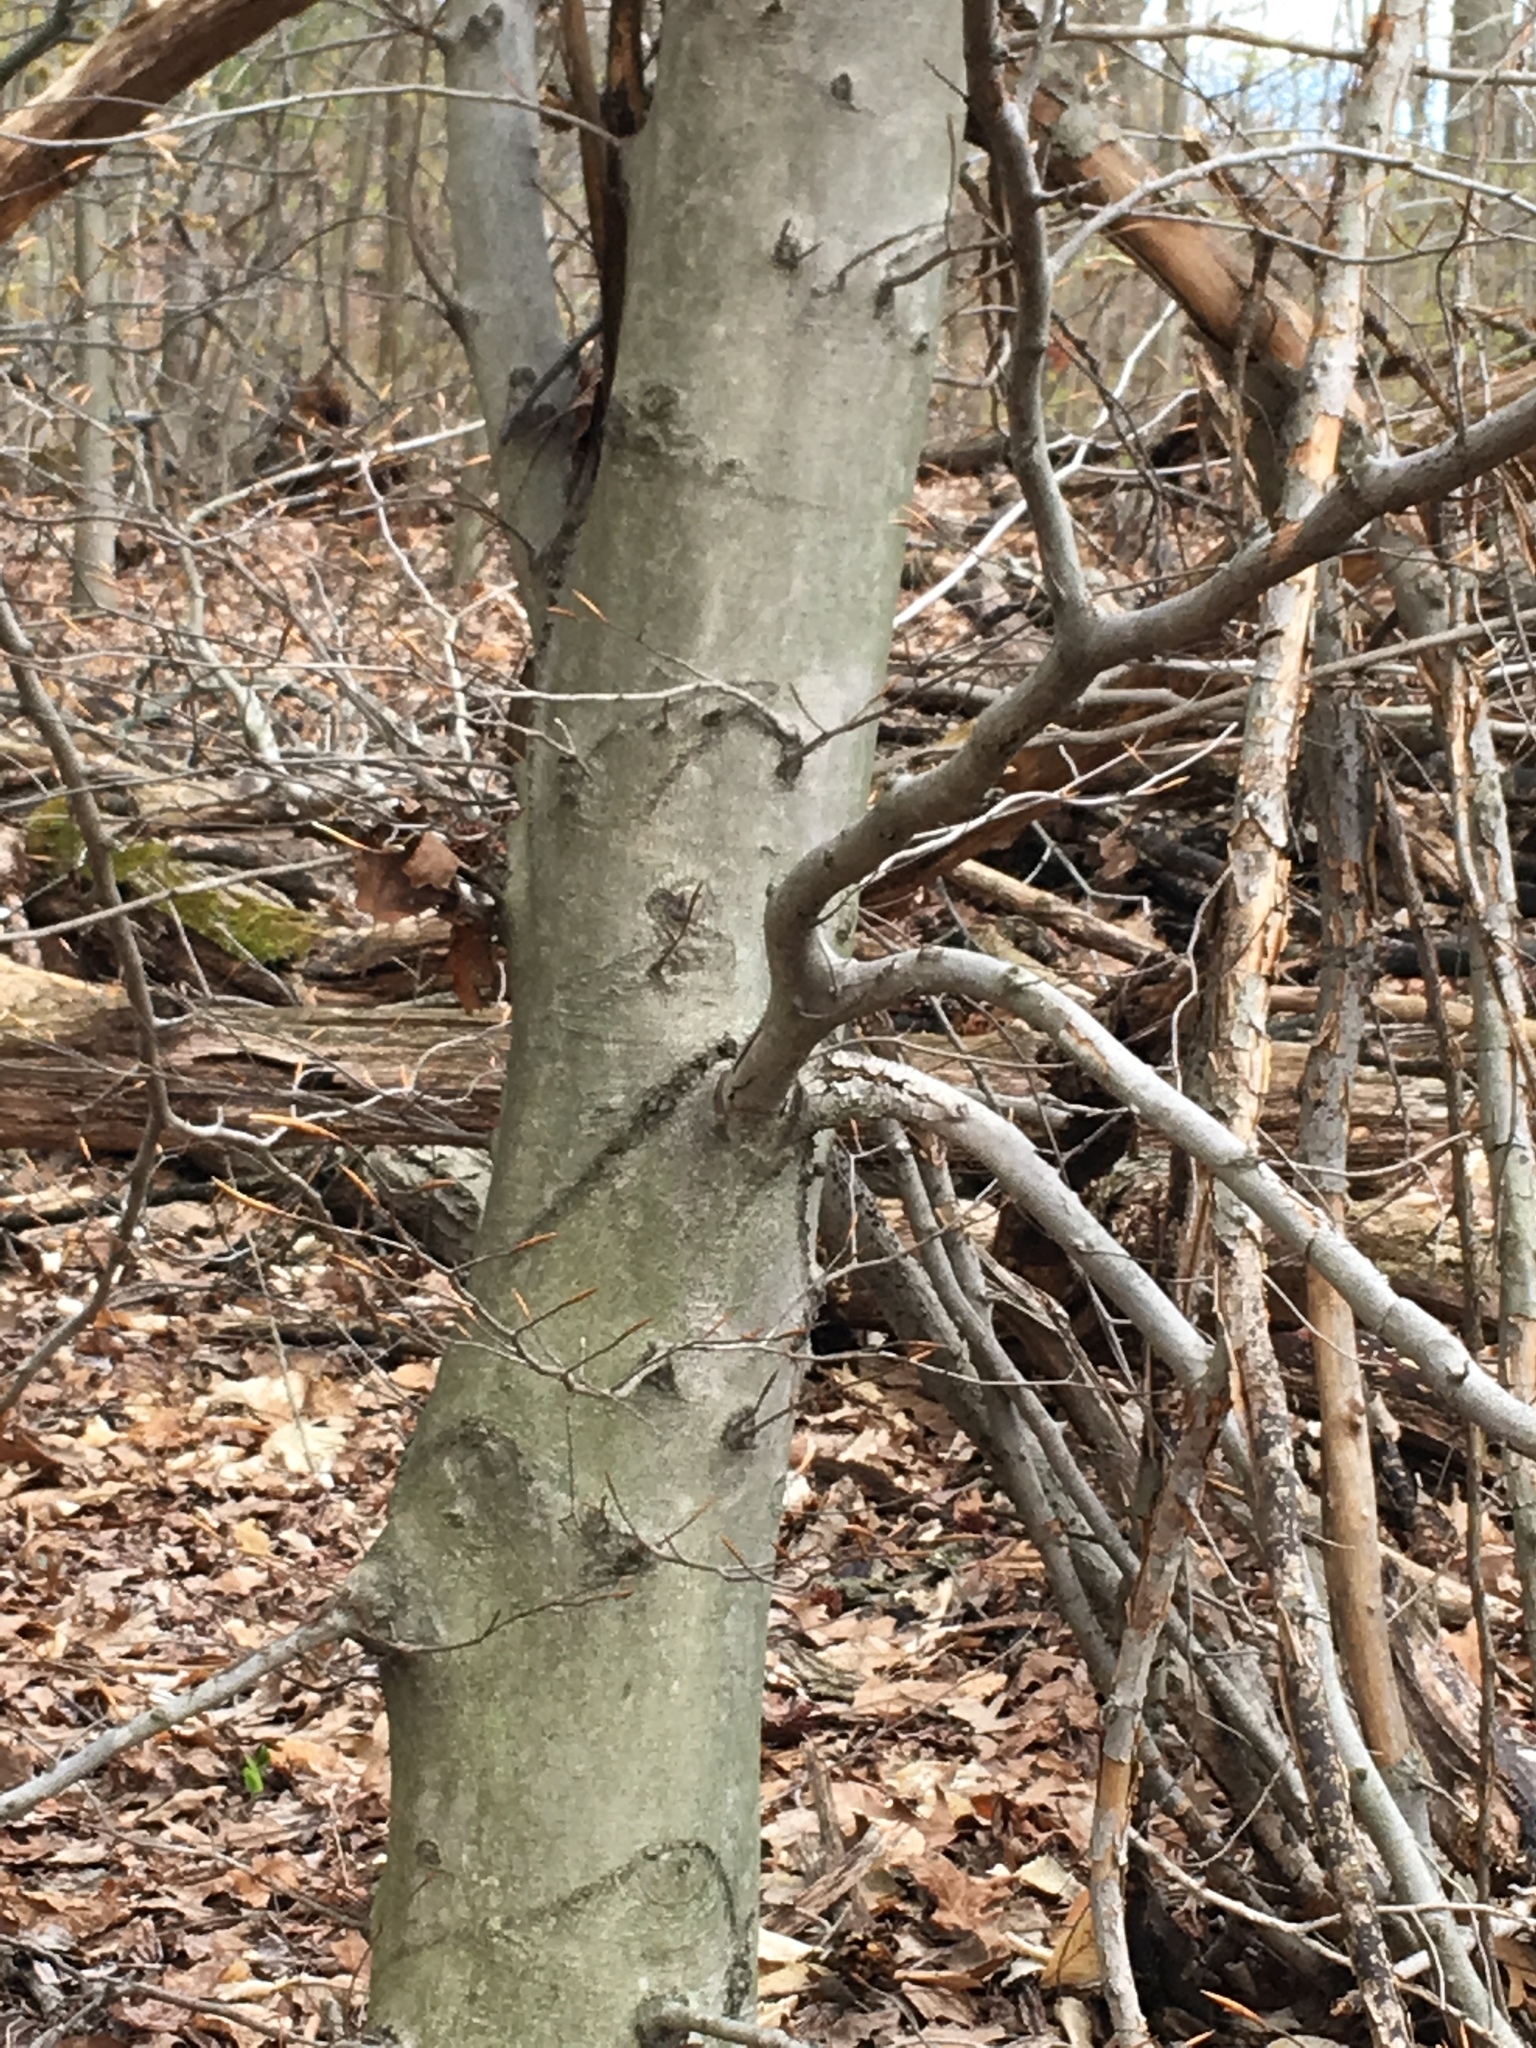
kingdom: Plantae
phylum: Tracheophyta
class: Magnoliopsida
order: Fagales
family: Fagaceae
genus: Fagus
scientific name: Fagus grandifolia
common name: American beech
